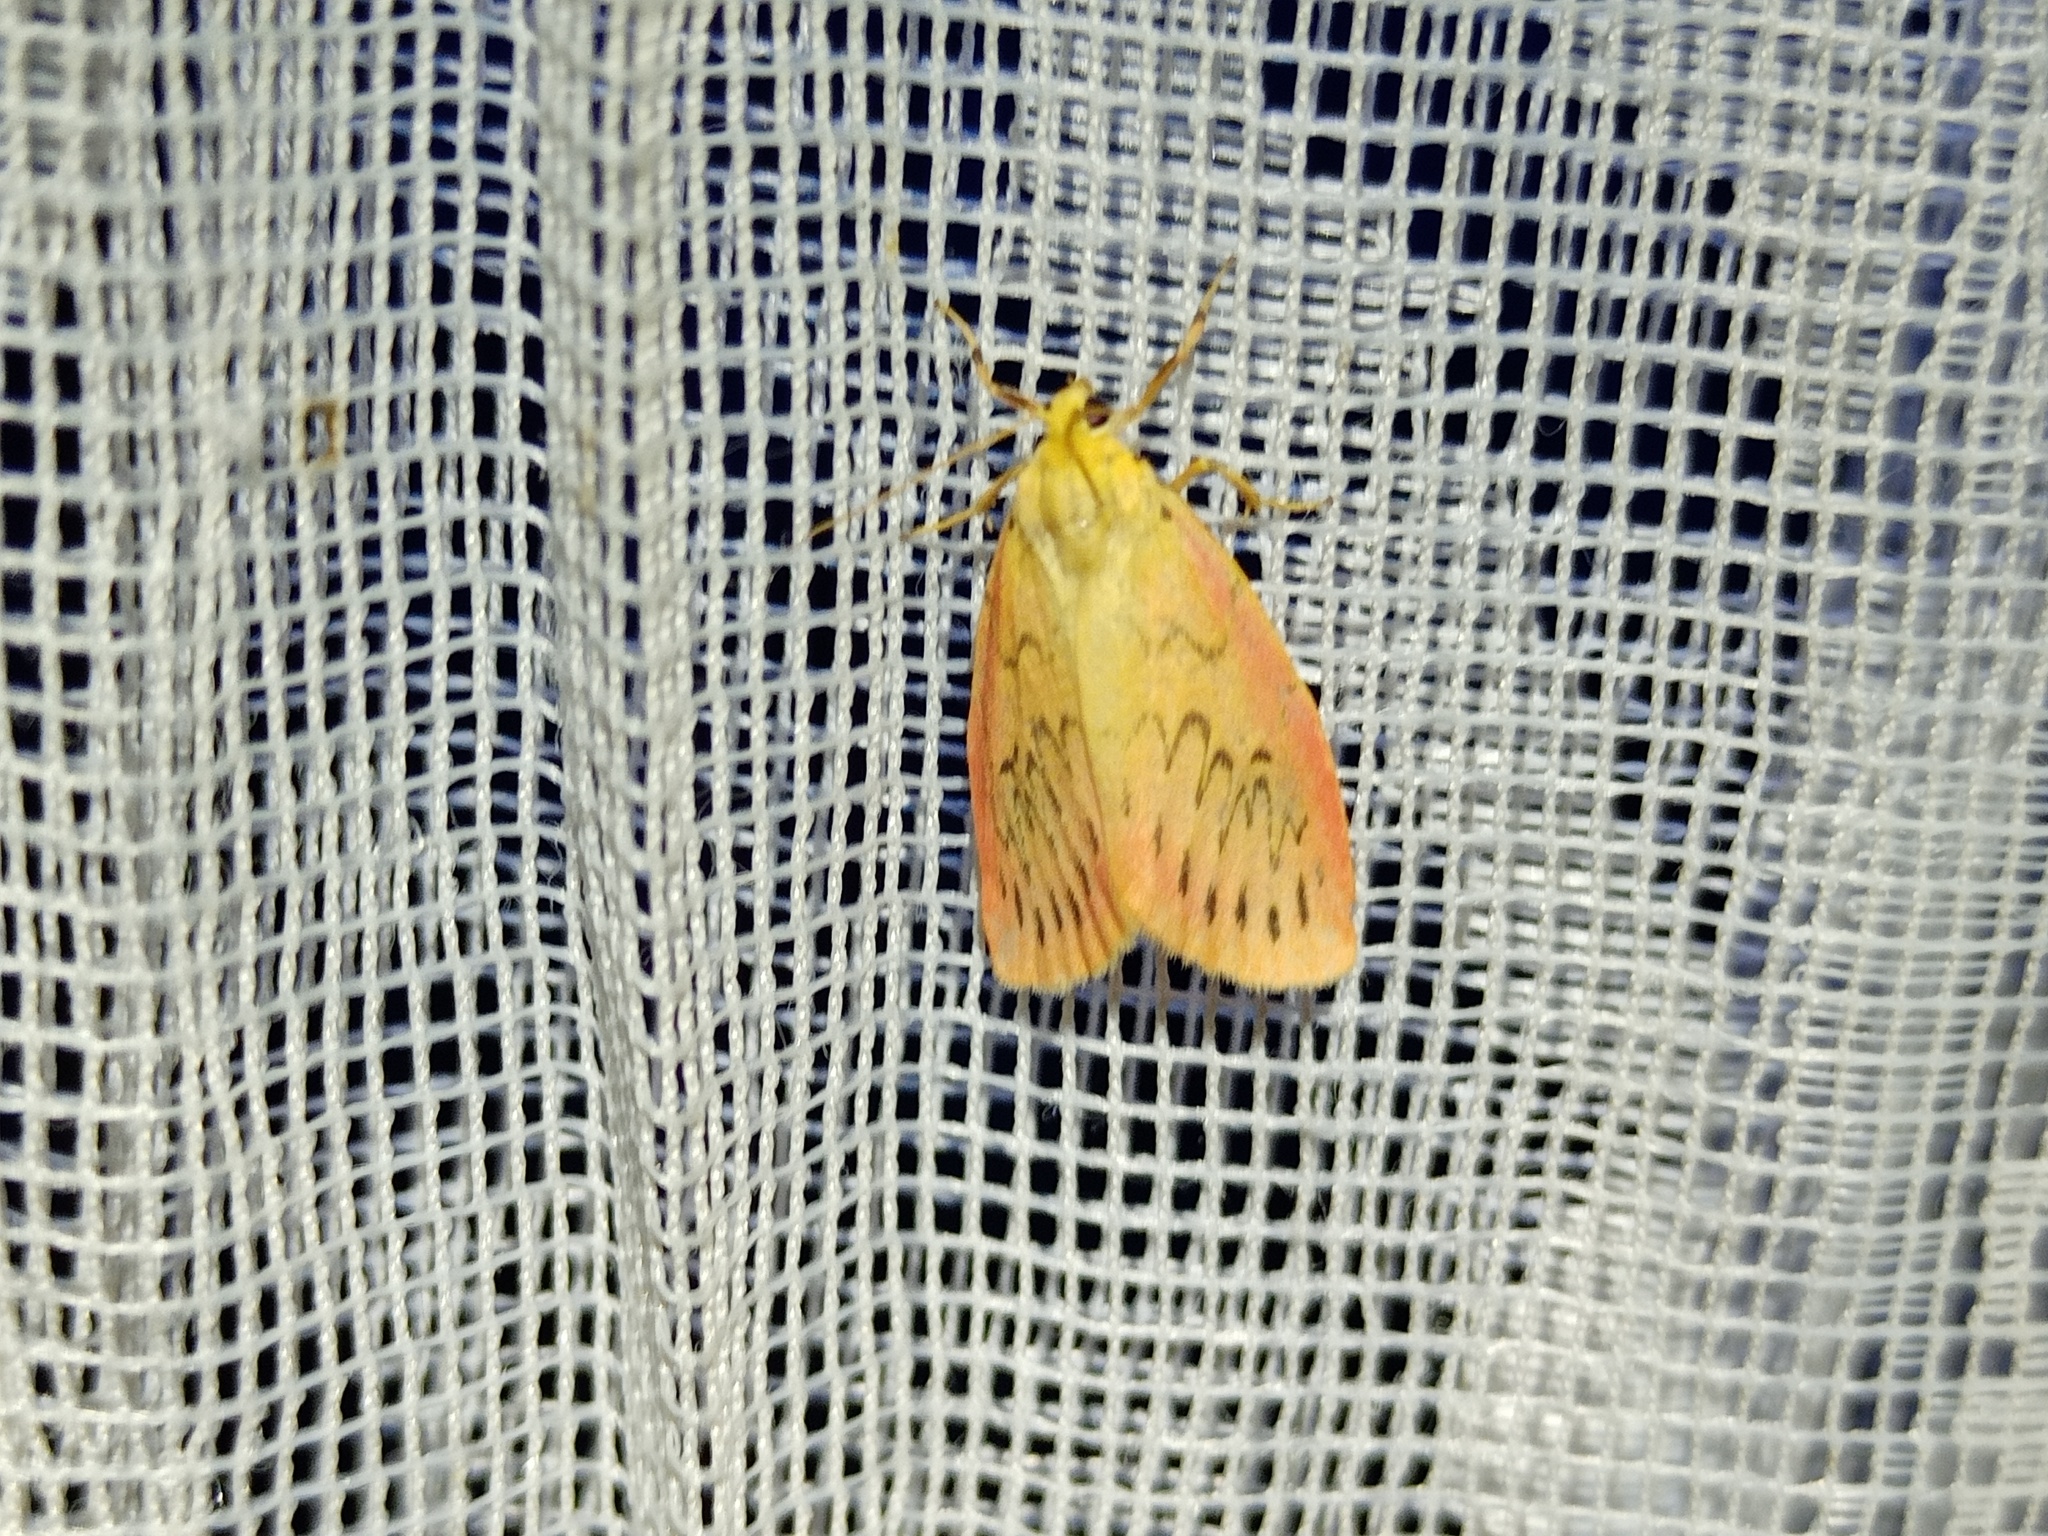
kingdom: Animalia
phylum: Arthropoda
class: Insecta
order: Lepidoptera
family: Erebidae
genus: Miltochrista
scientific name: Miltochrista miniata
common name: Rosy footman
